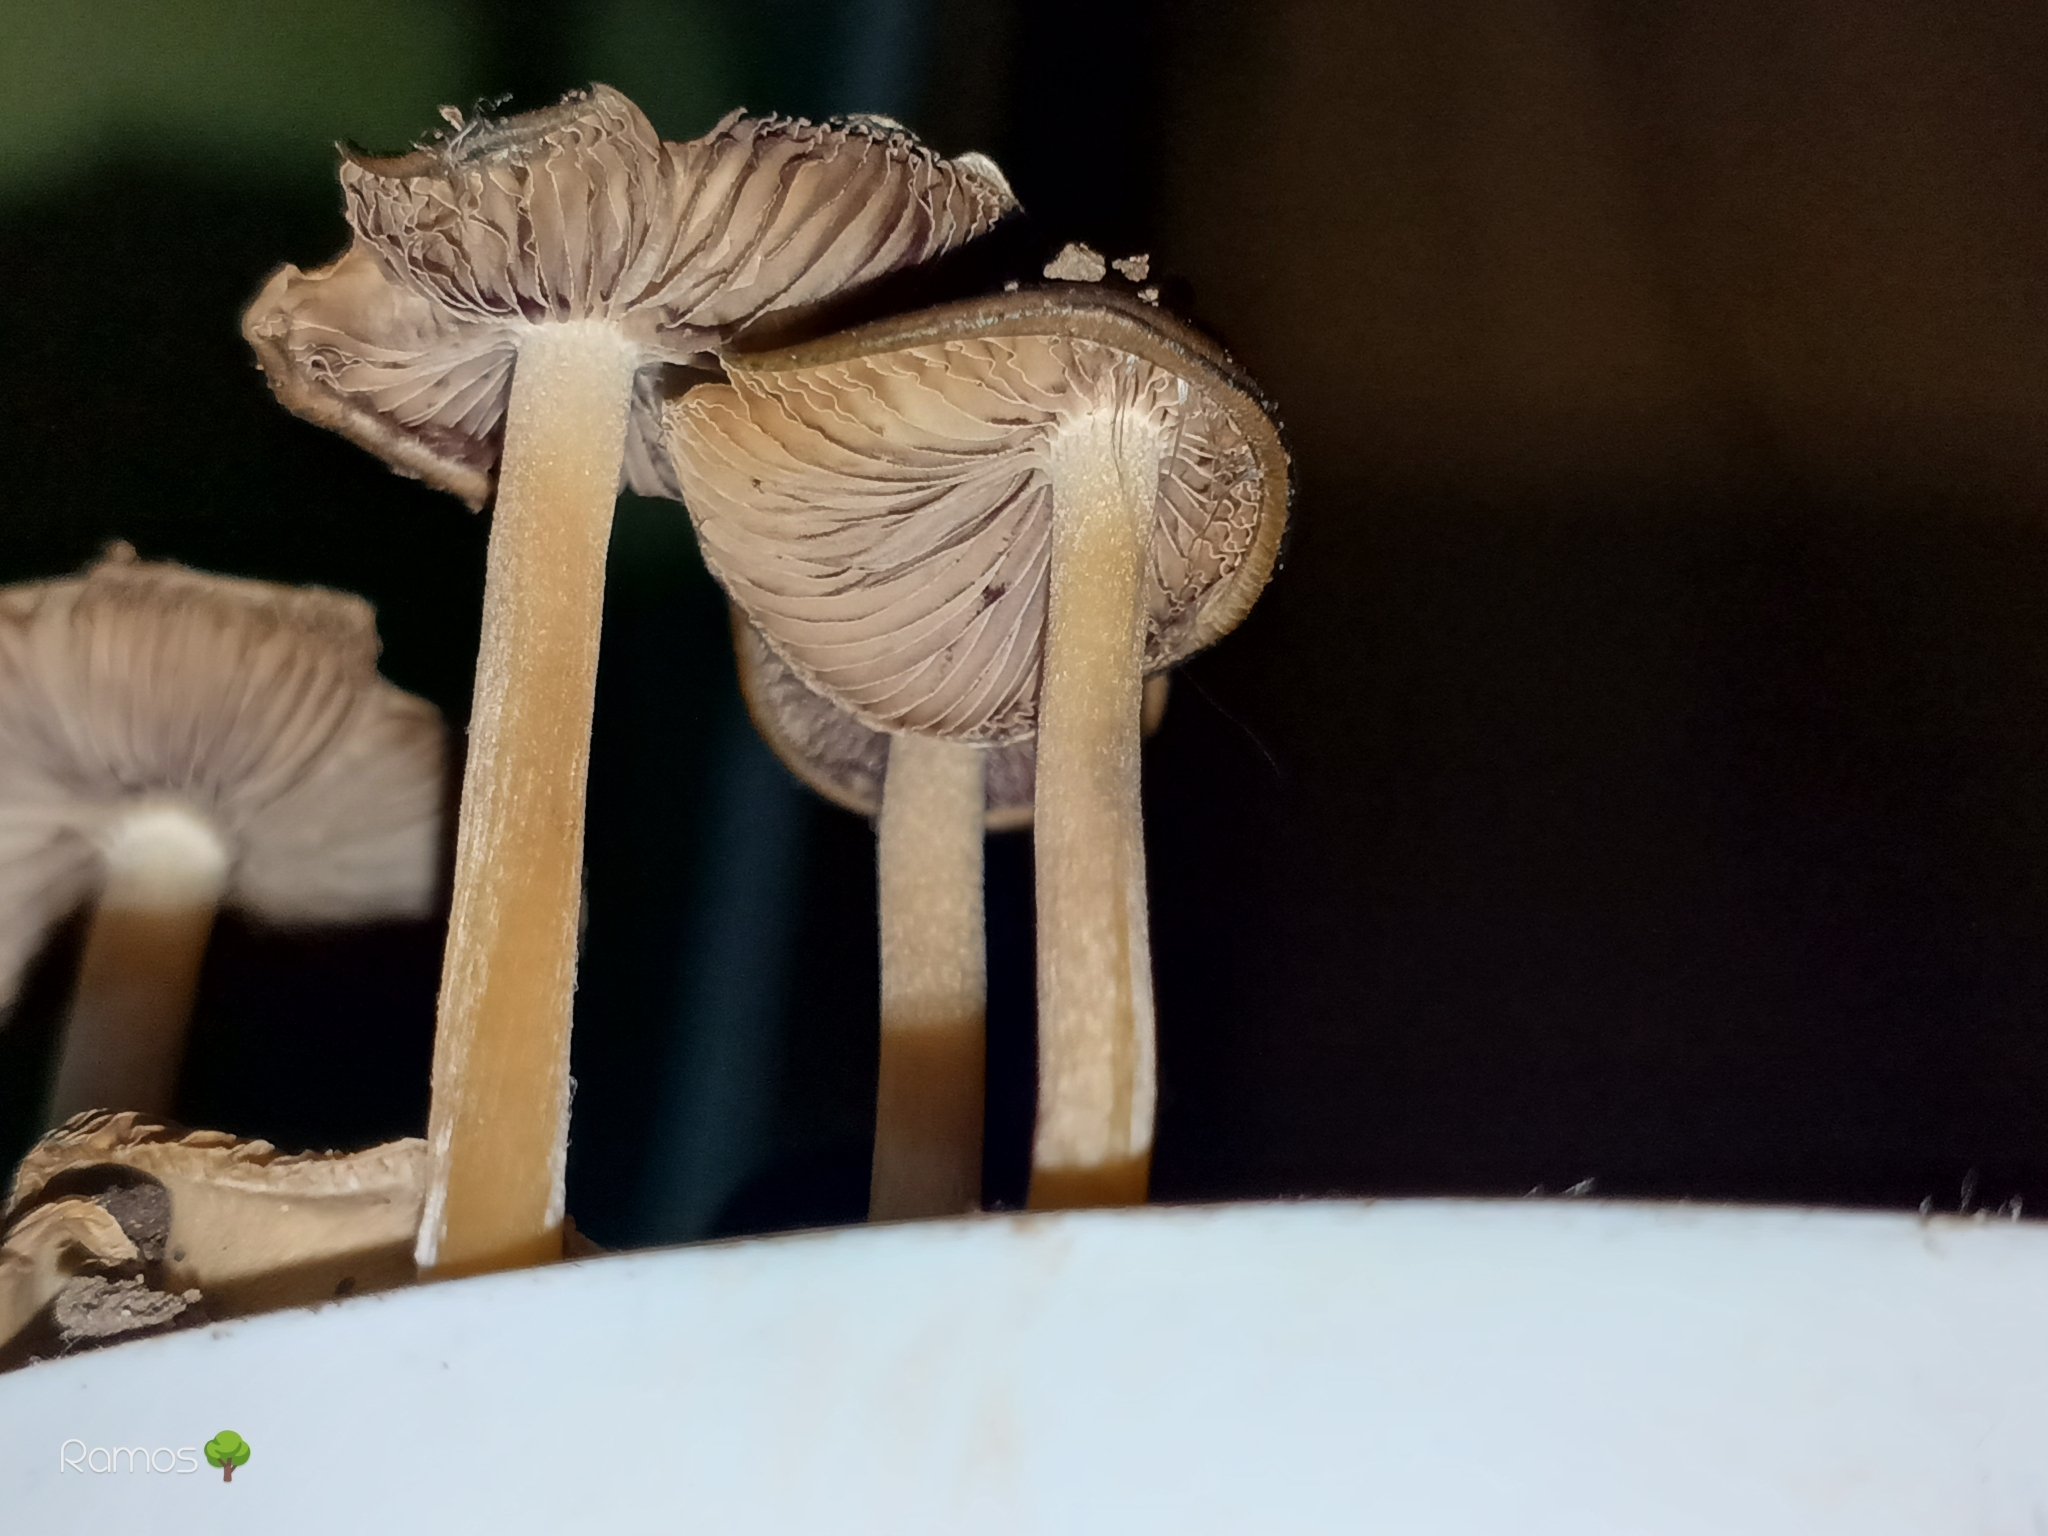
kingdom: Fungi
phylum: Basidiomycota
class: Agaricomycetes
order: Agaricales
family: Hymenogastraceae
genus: Psilocybe
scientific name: Psilocybe caerulescens
